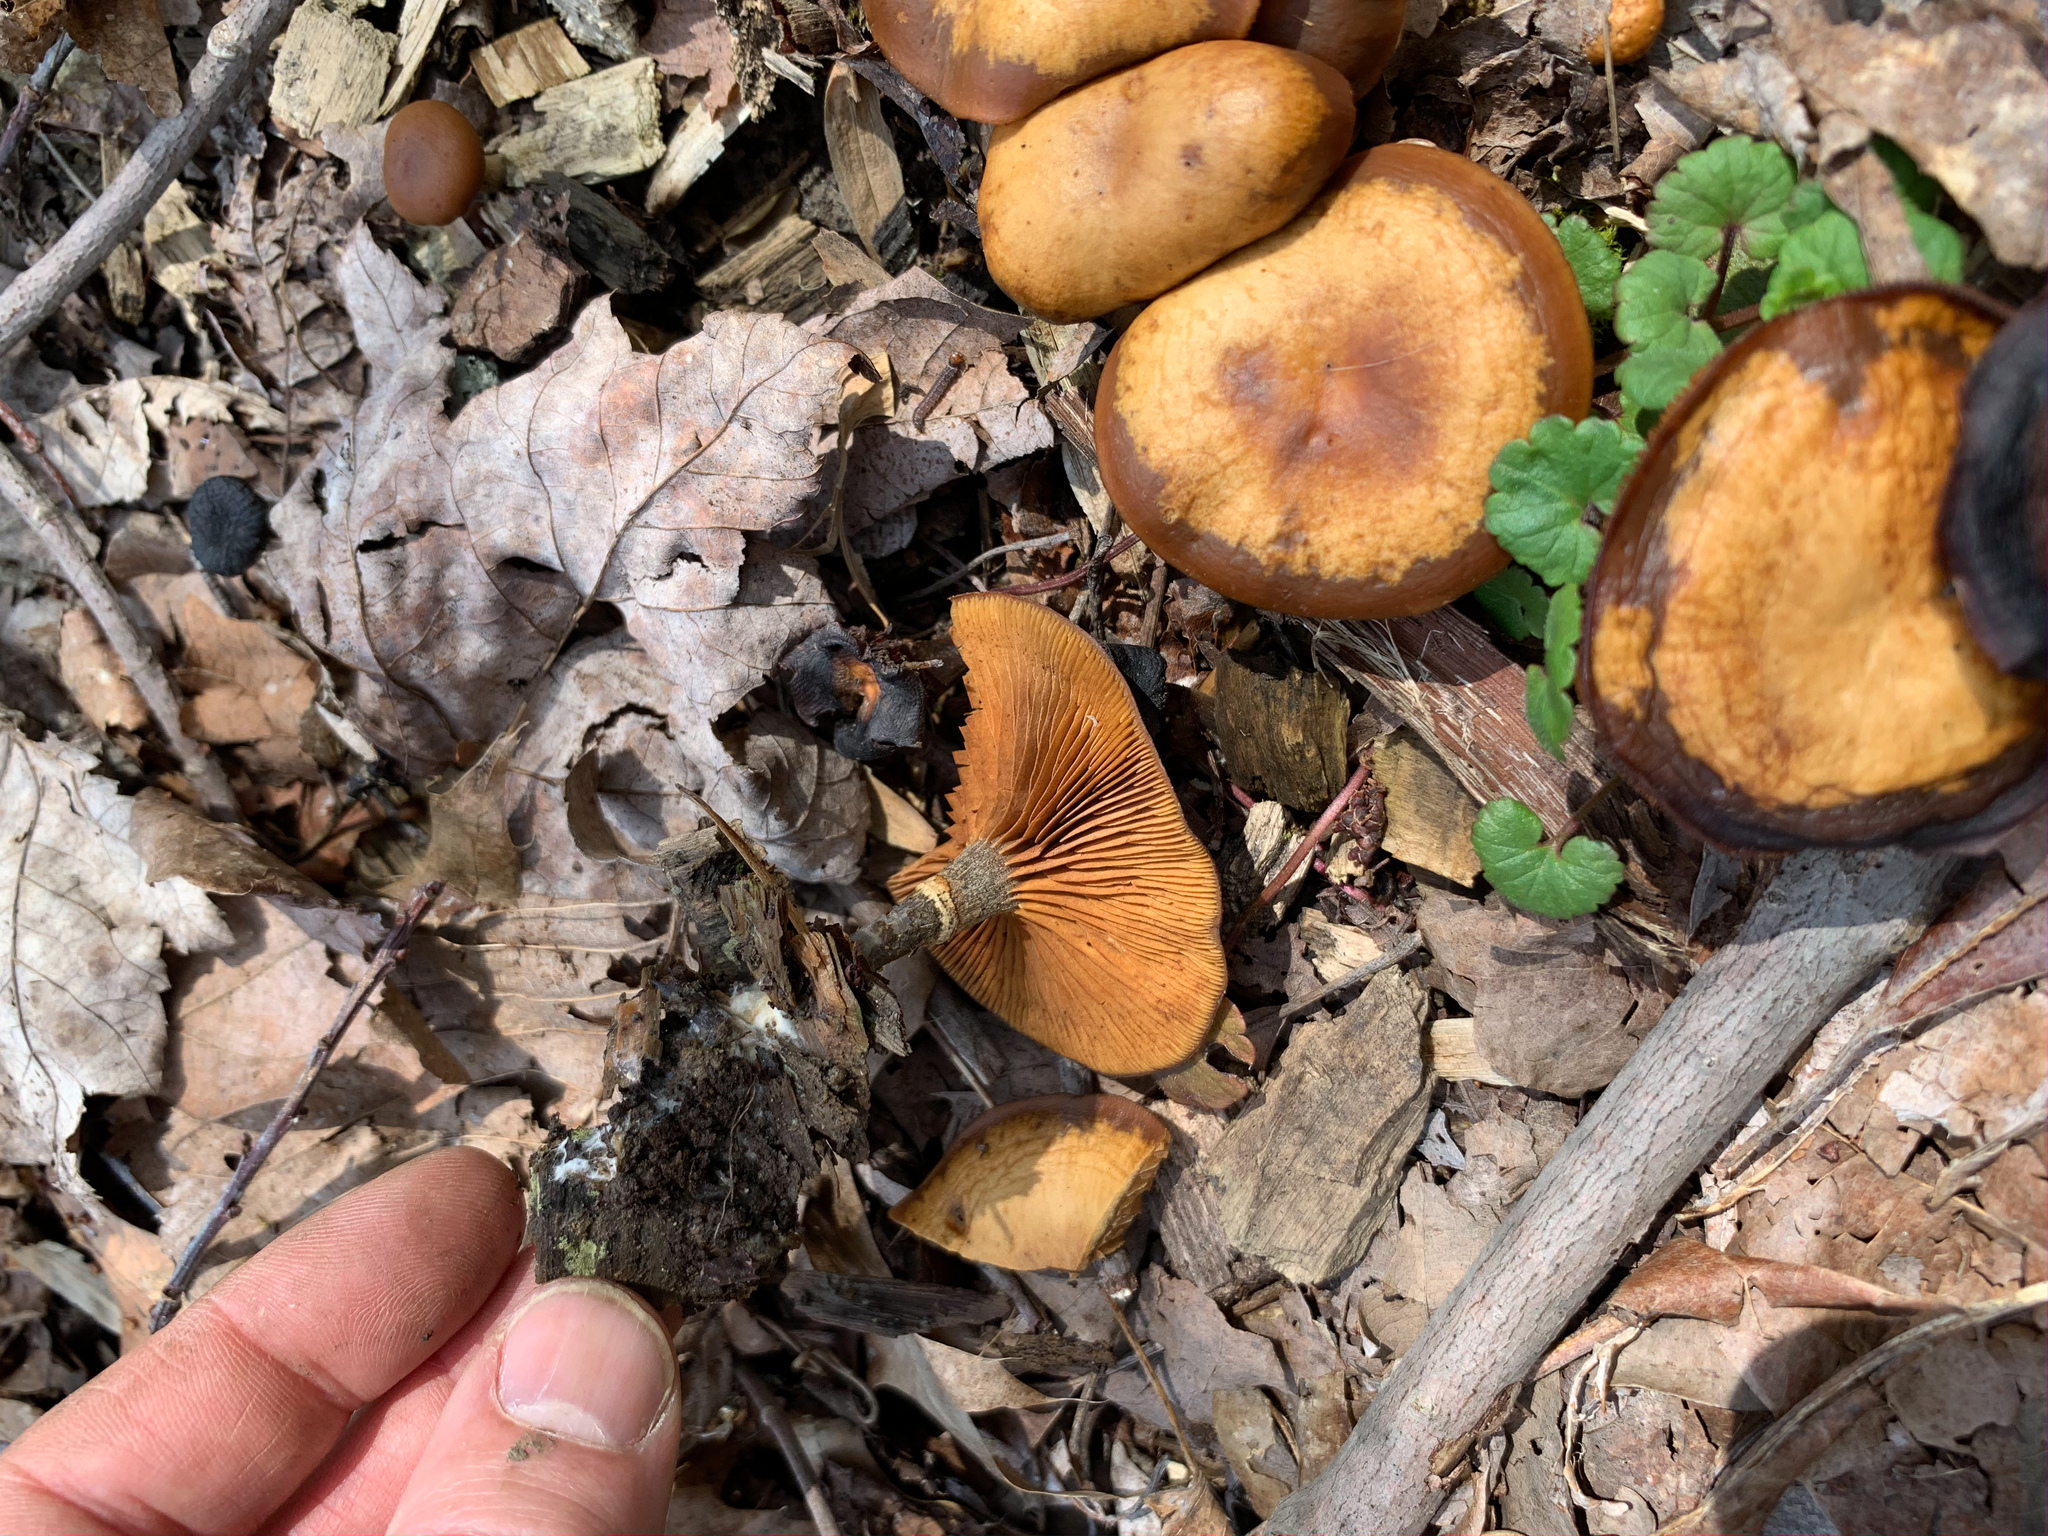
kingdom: Fungi
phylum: Basidiomycota
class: Agaricomycetes
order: Agaricales
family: Hymenogastraceae
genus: Galerina
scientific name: Galerina marginata
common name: Funeral bell
